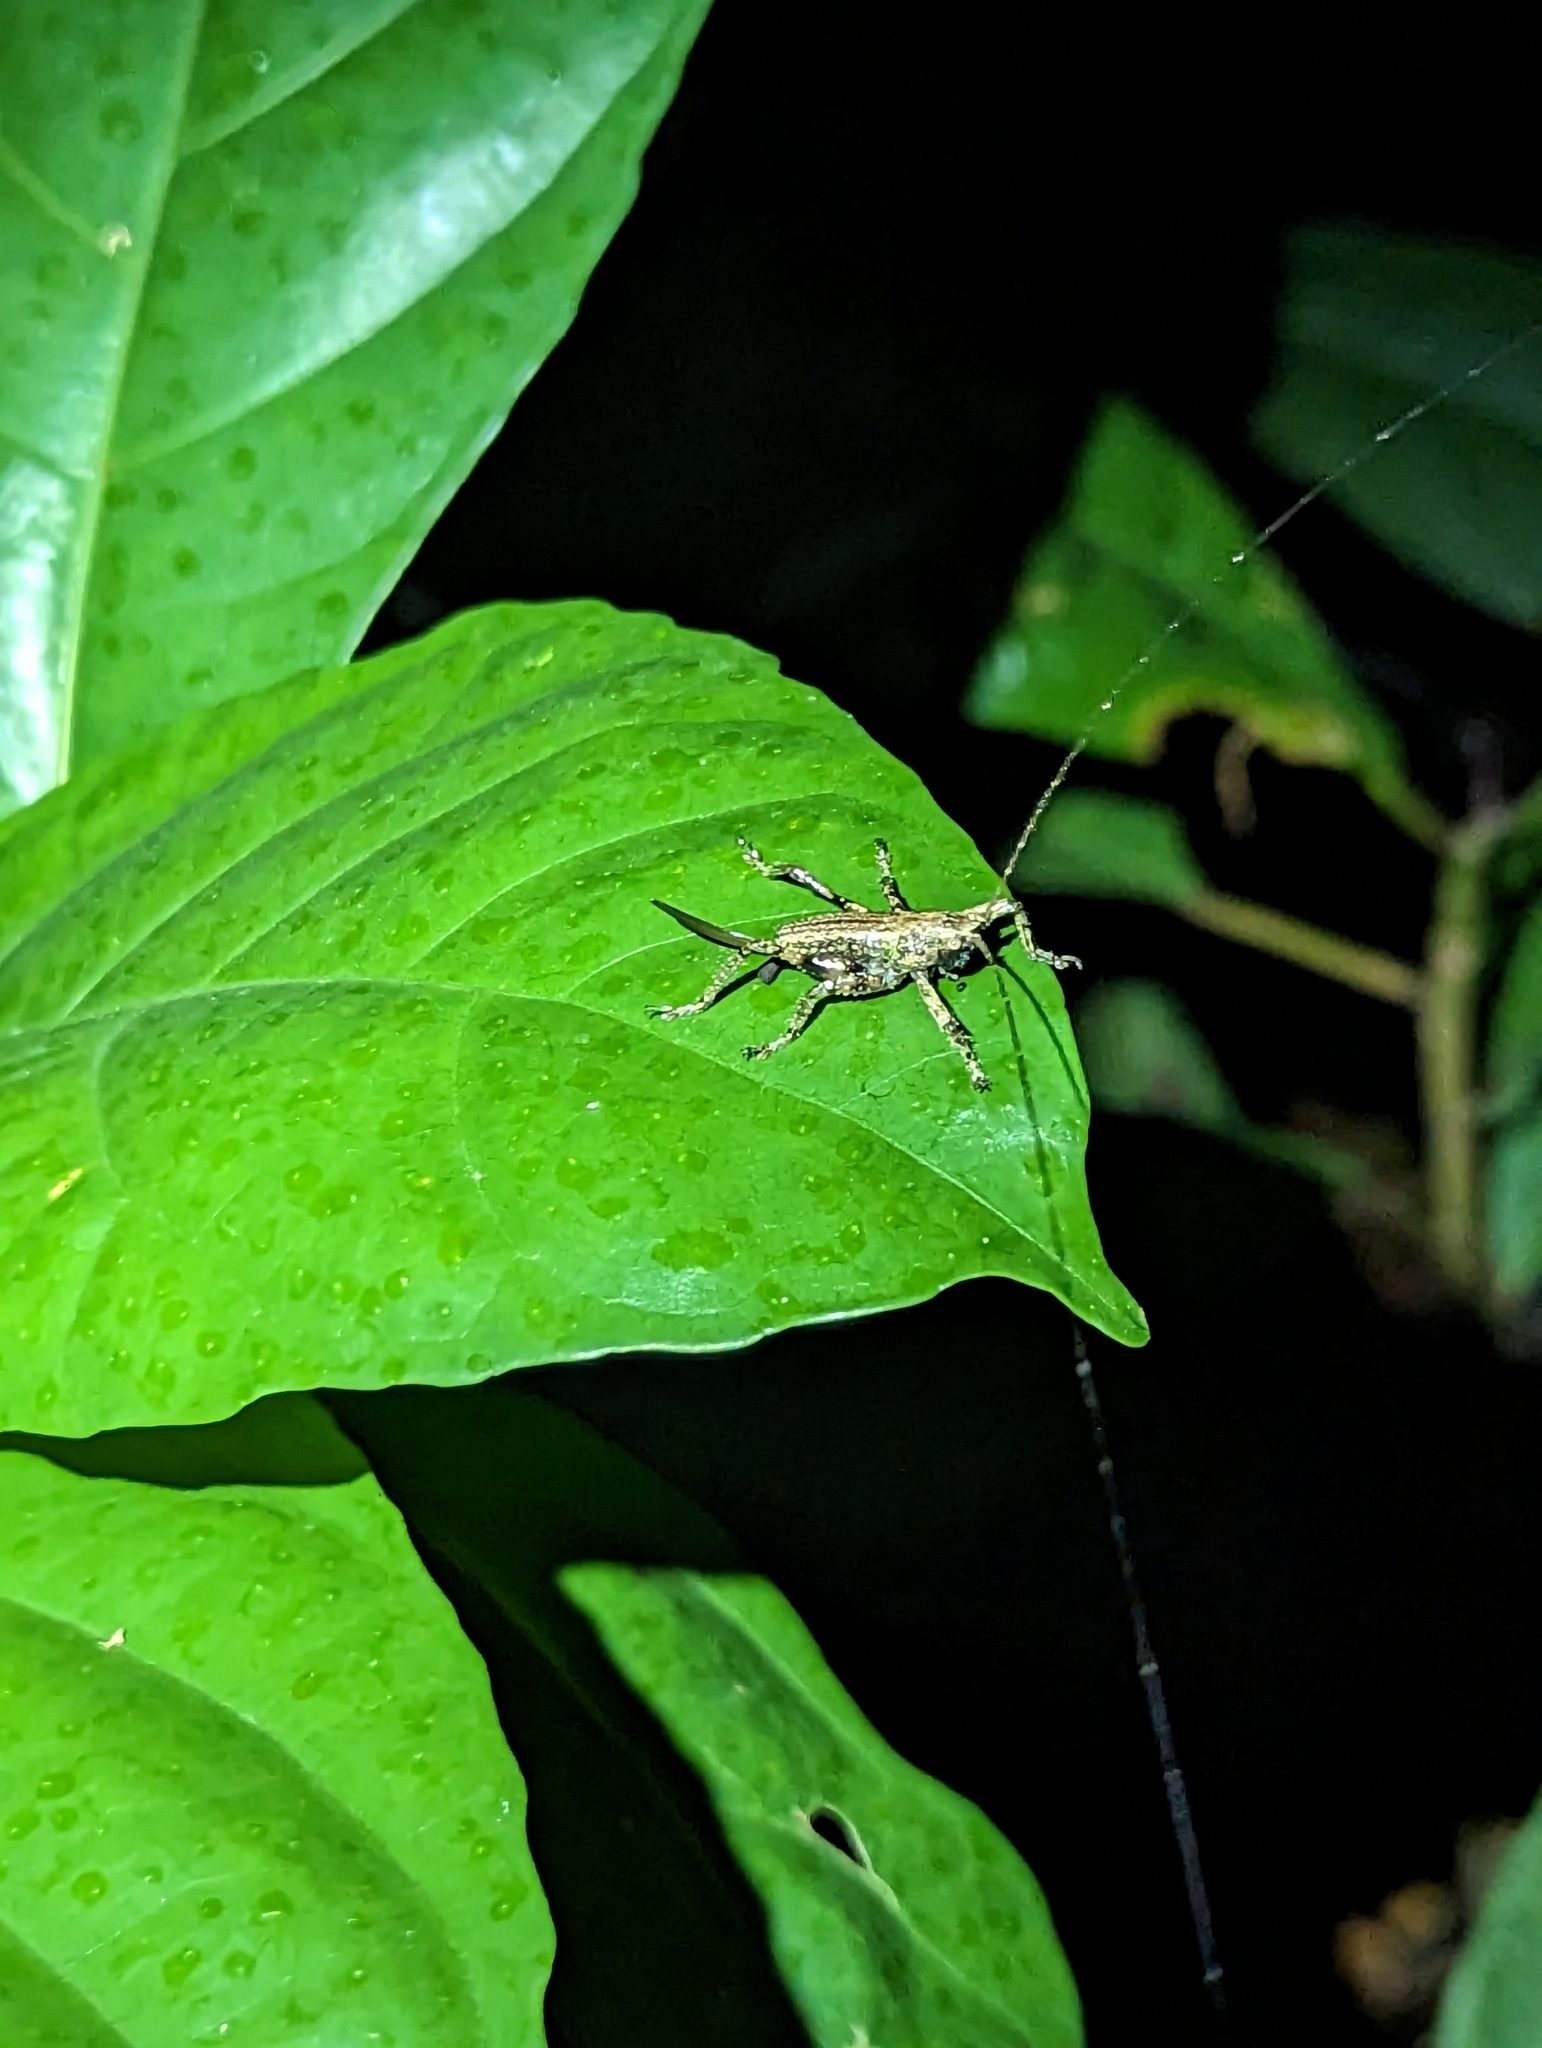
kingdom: Animalia
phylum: Arthropoda
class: Insecta
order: Orthoptera
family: Tettigoniidae
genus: Nahlaksia
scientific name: Nahlaksia bidadari
